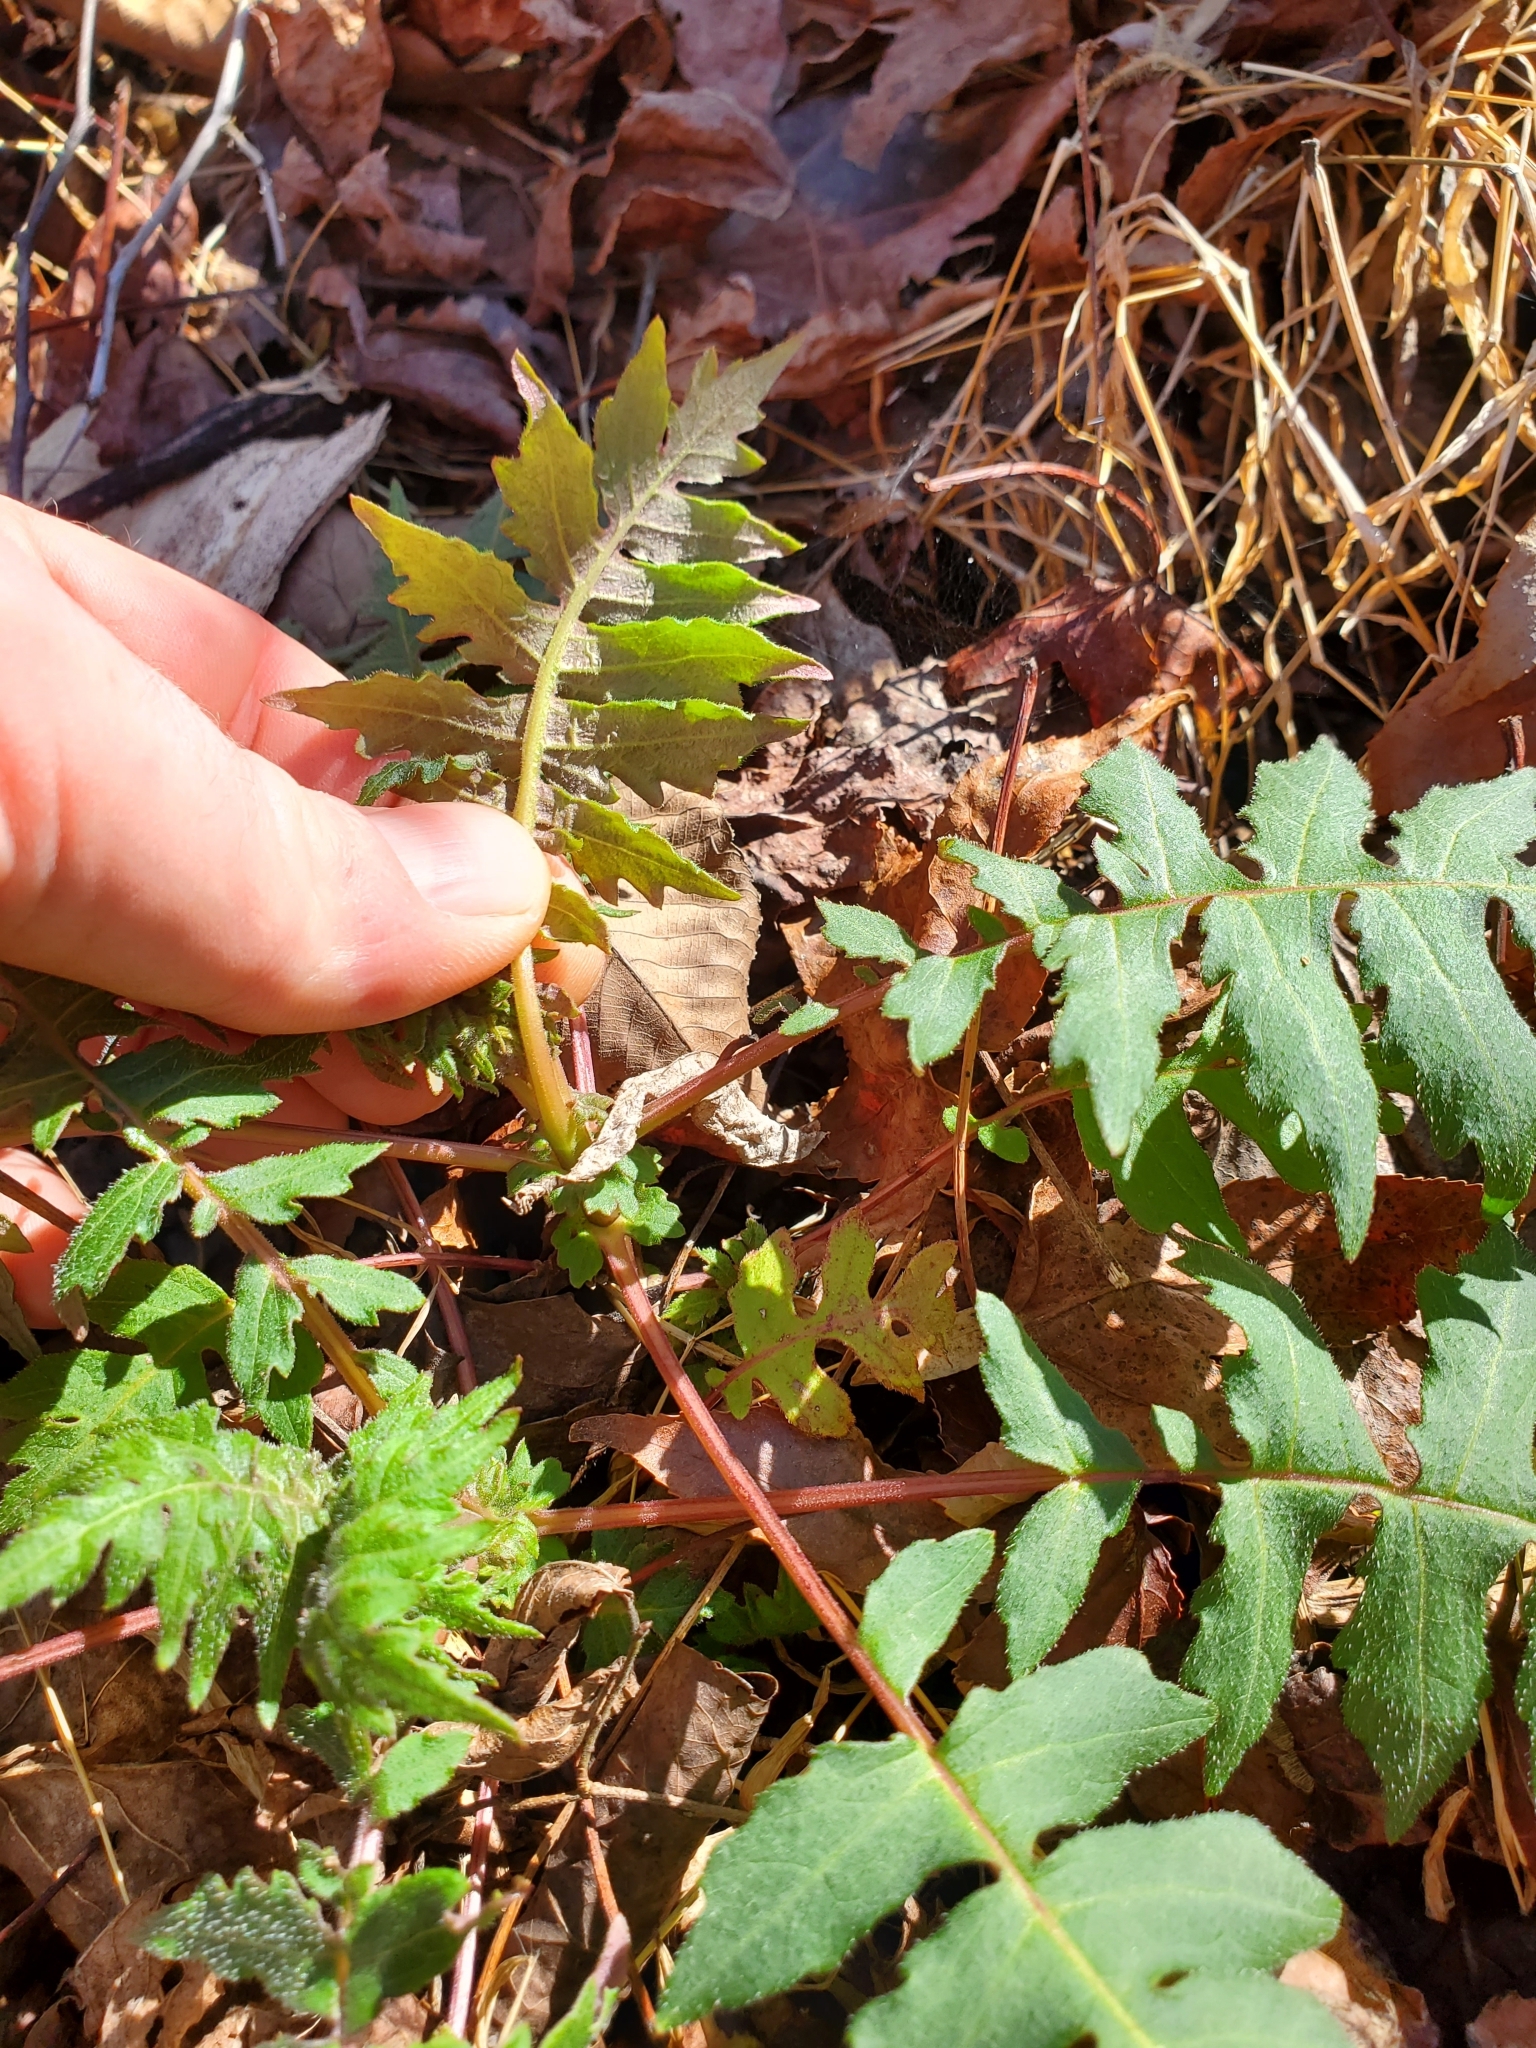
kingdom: Plantae
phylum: Tracheophyta
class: Magnoliopsida
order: Asterales
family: Asteraceae
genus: Polymnia
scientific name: Polymnia canadensis
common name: Pale-flowered leafcup
